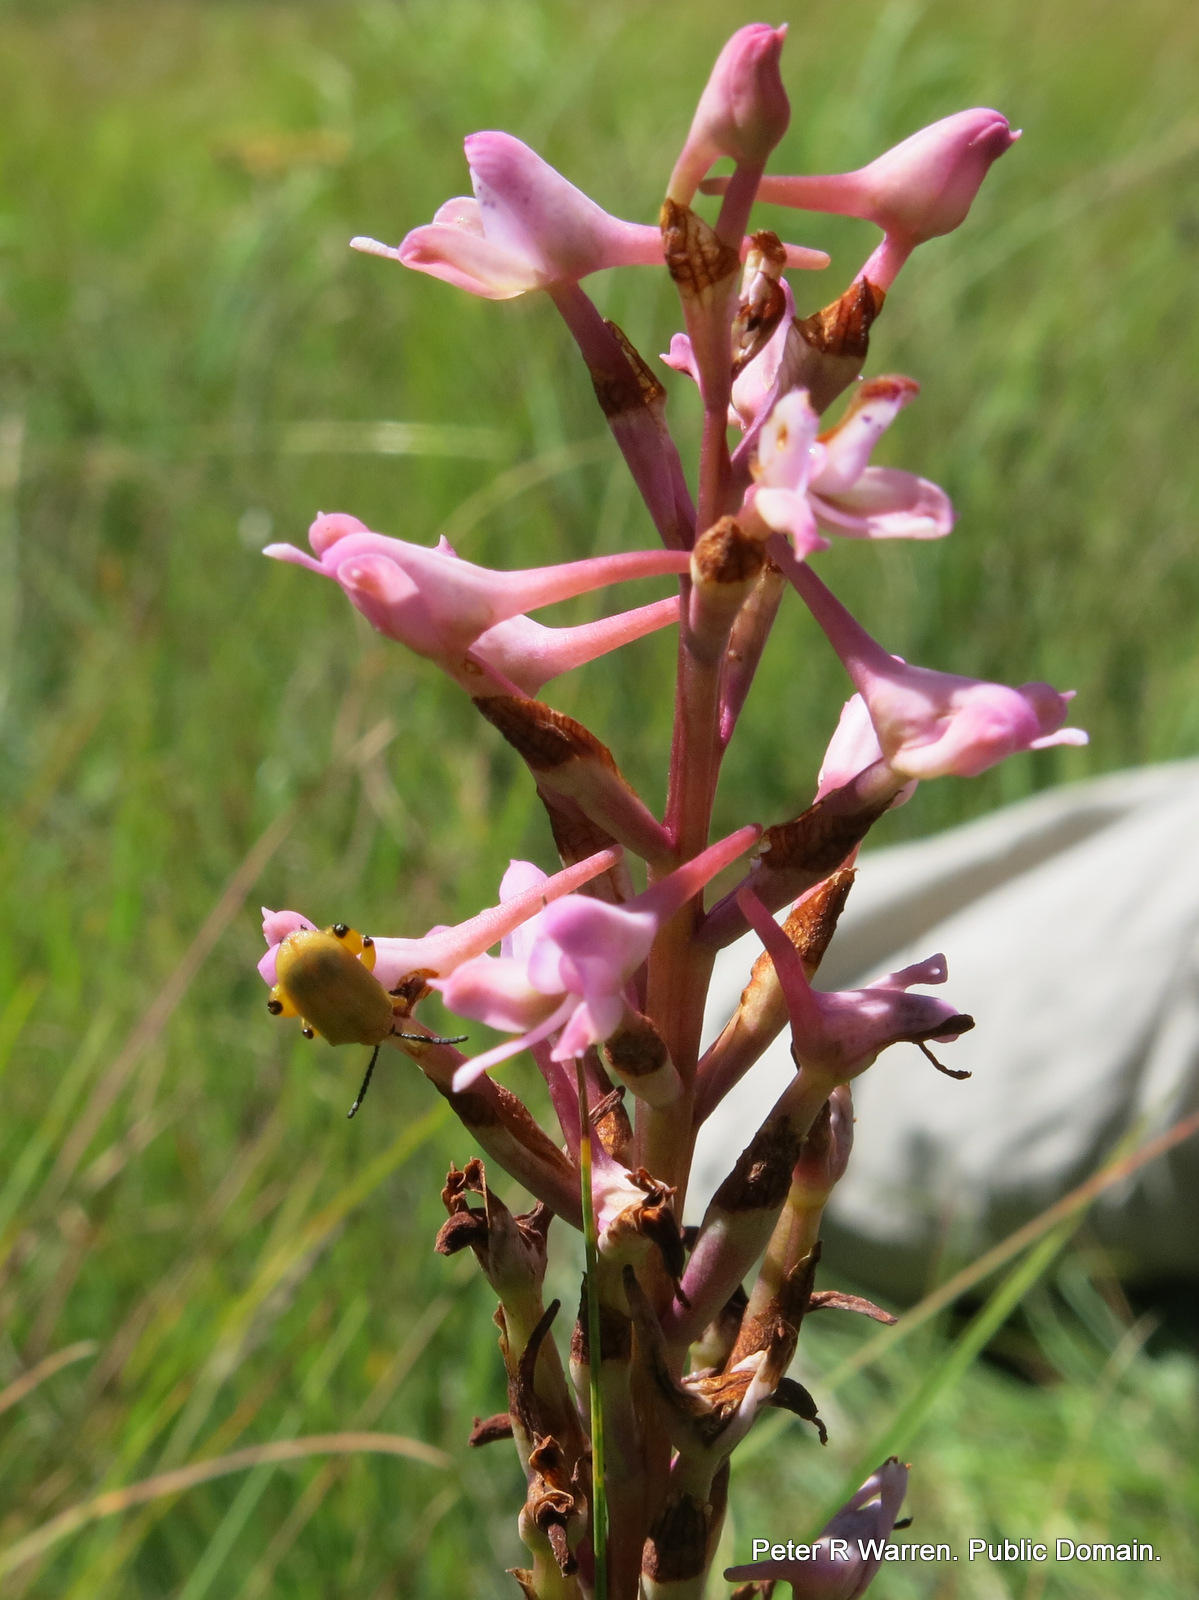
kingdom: Plantae
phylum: Tracheophyta
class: Liliopsida
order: Asparagales
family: Orchidaceae
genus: Disa
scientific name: Disa patula
